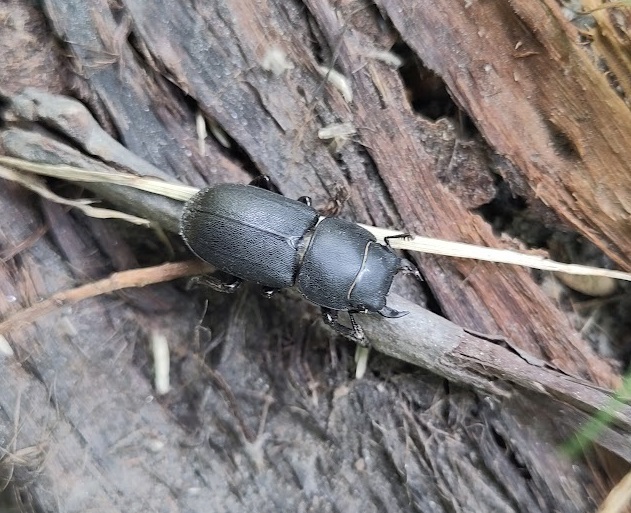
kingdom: Animalia
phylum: Arthropoda
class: Insecta
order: Coleoptera
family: Lucanidae
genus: Dorcus
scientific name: Dorcus parallelipipedus
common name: Lesser stag beetle
